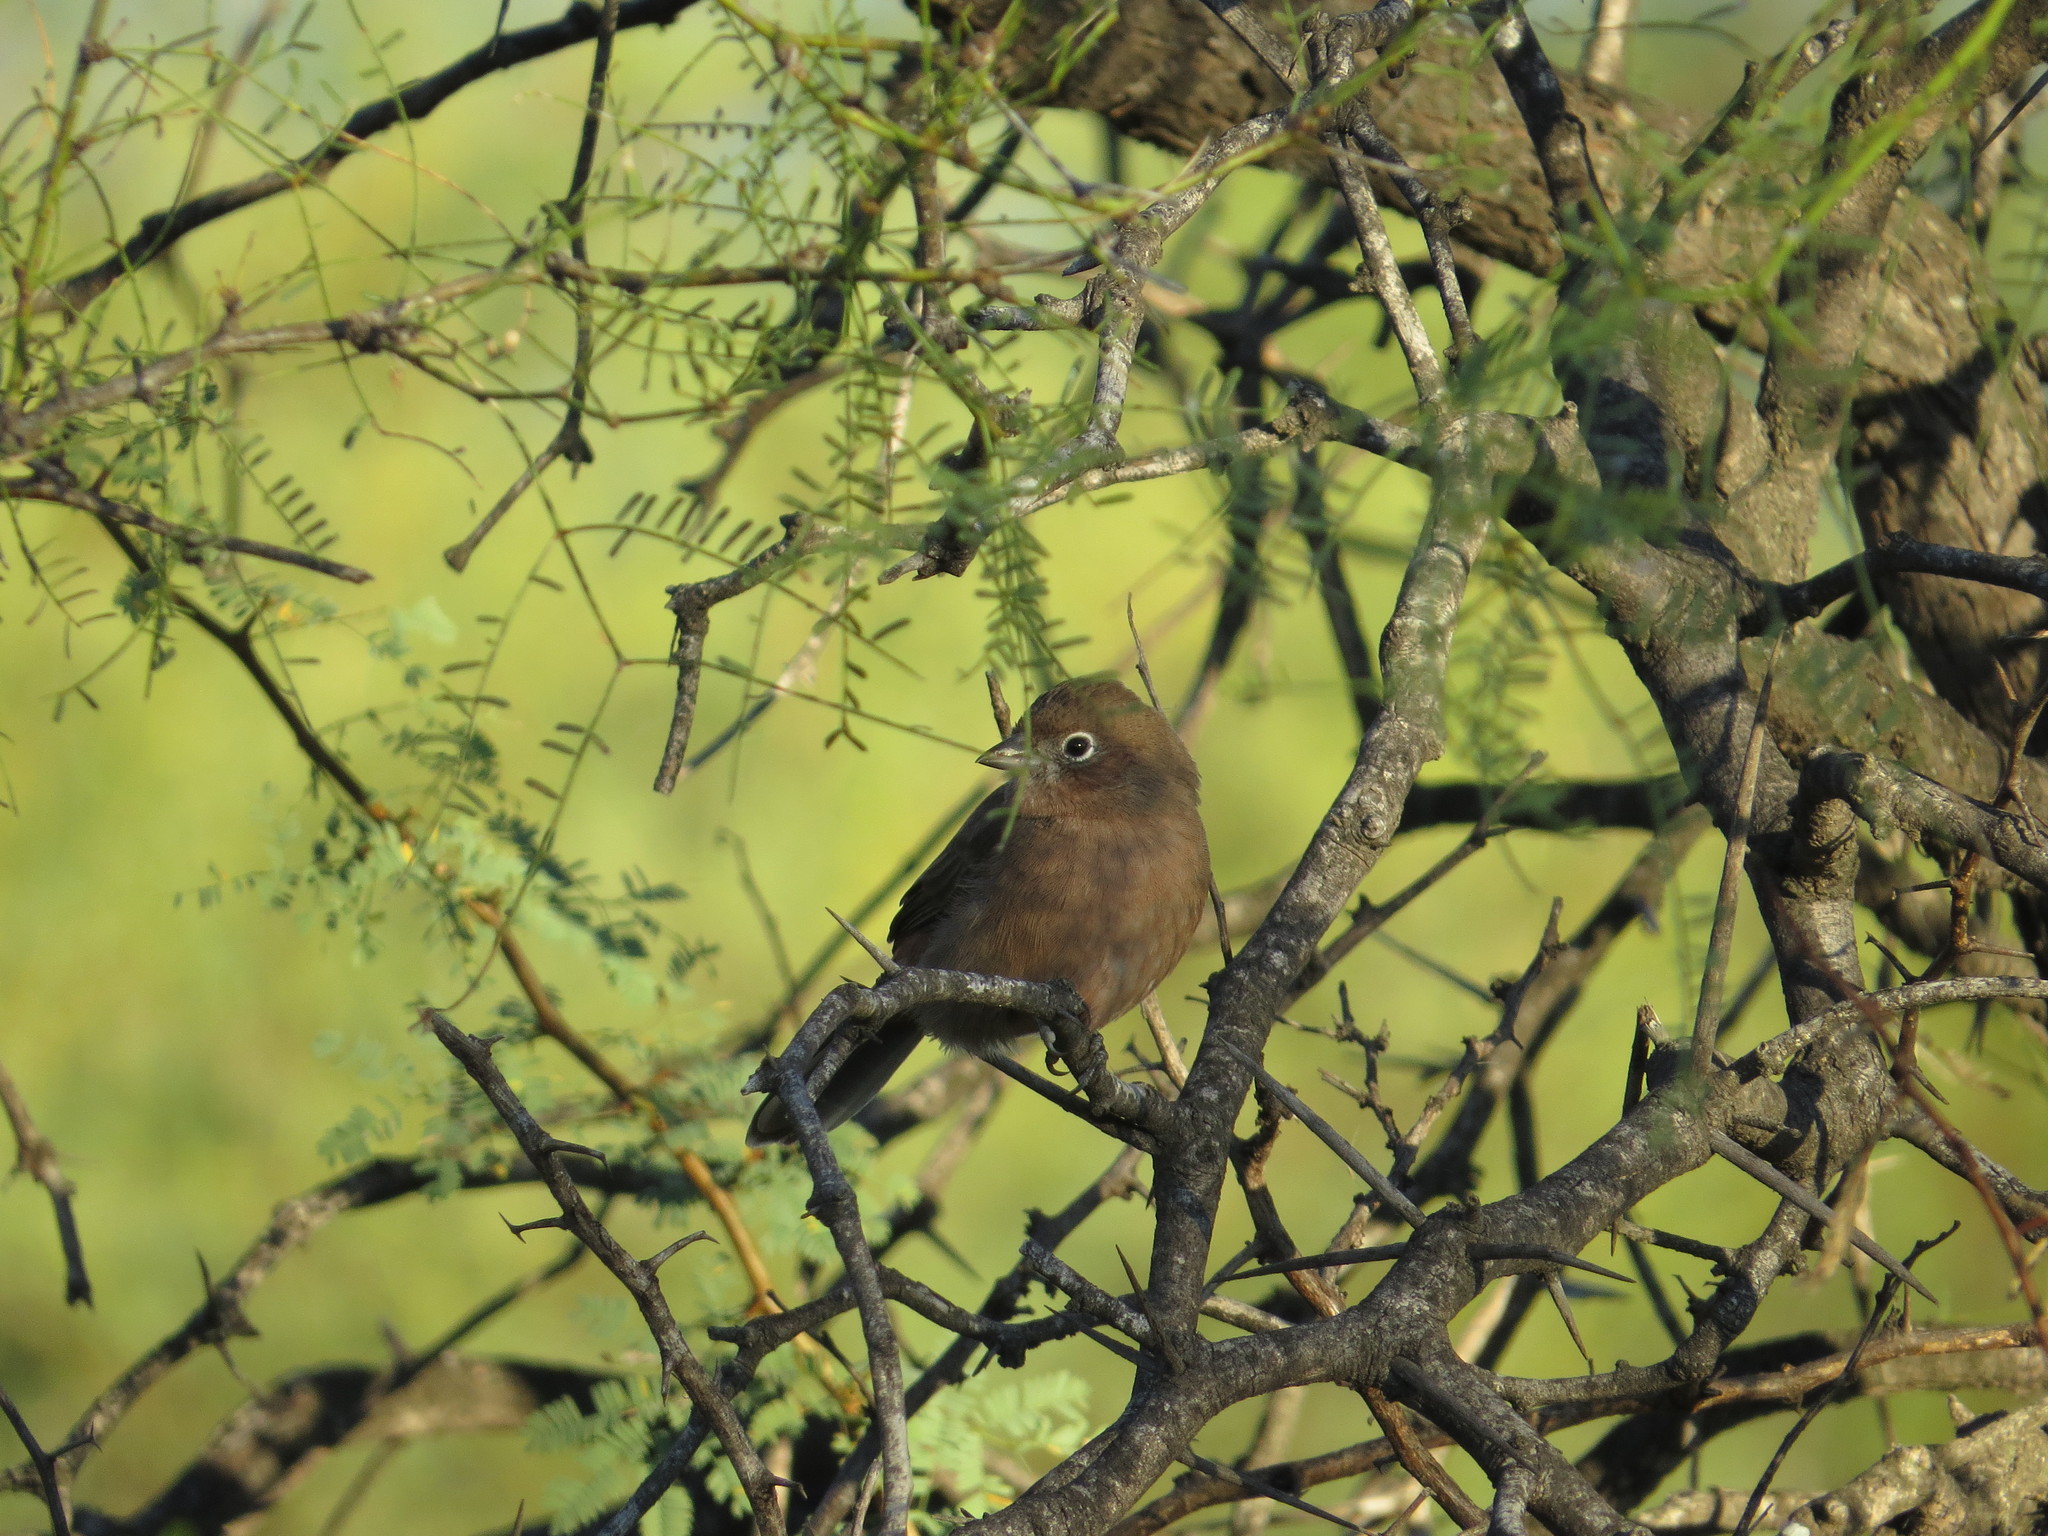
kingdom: Animalia
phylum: Chordata
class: Aves
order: Passeriformes
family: Thraupidae
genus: Coryphospingus
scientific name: Coryphospingus cucullatus
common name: Red pileated finch
